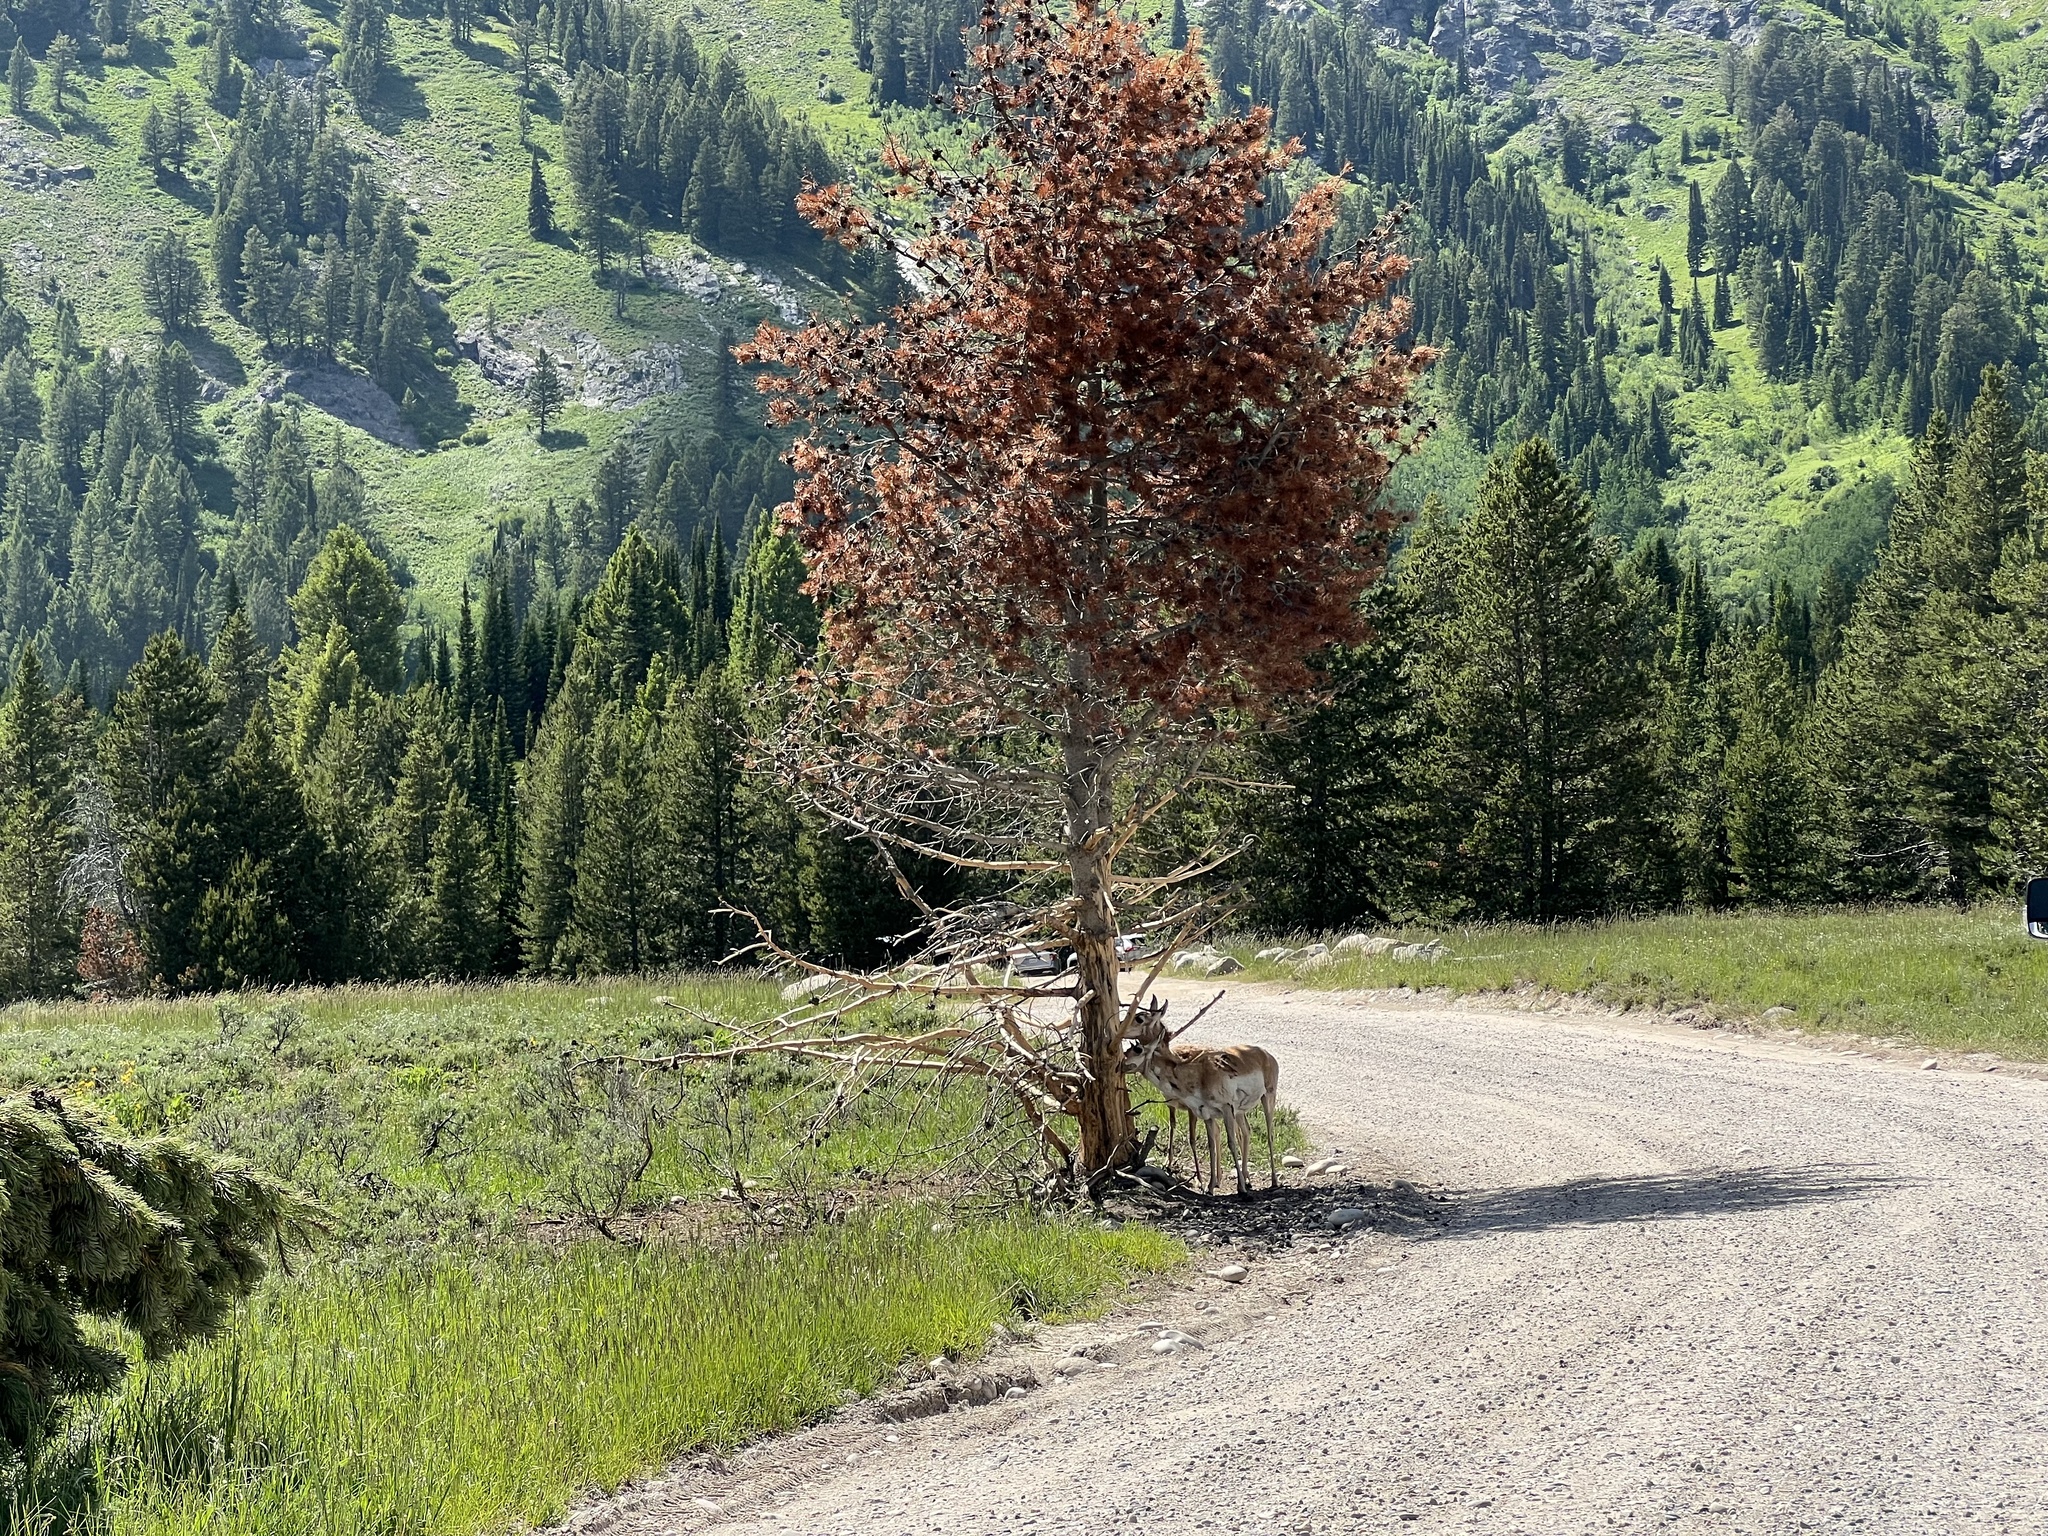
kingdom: Animalia
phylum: Chordata
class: Mammalia
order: Artiodactyla
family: Antilocapridae
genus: Antilocapra
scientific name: Antilocapra americana
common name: Pronghorn
